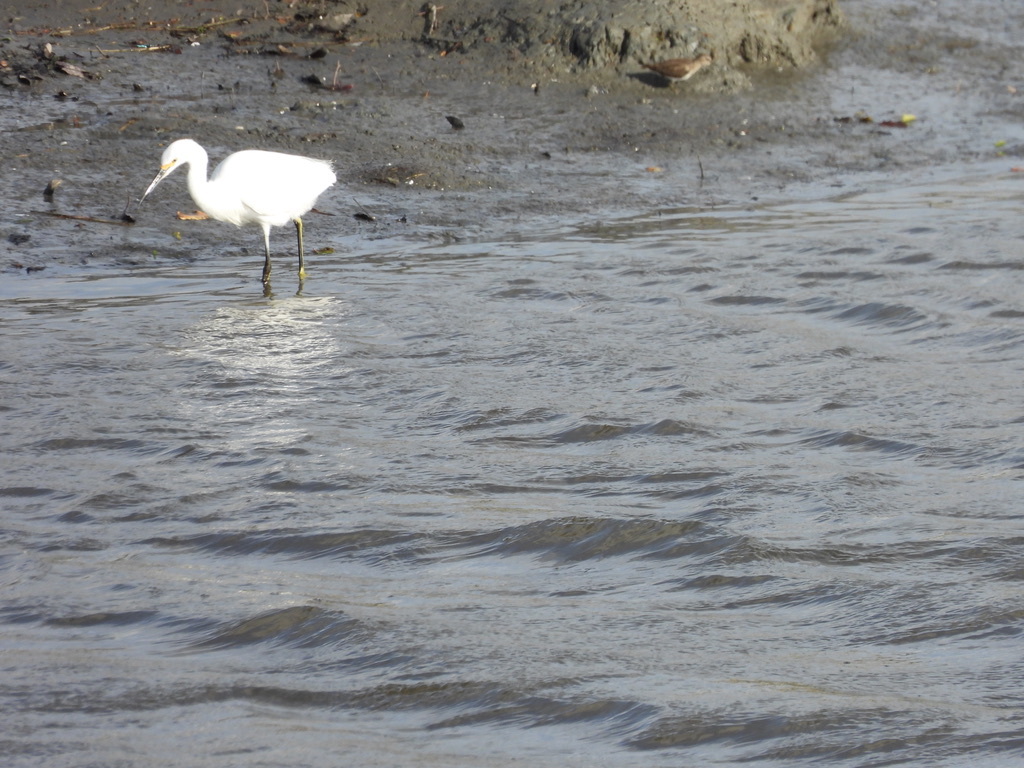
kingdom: Animalia
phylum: Chordata
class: Aves
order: Pelecaniformes
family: Ardeidae
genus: Egretta
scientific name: Egretta thula
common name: Snowy egret
